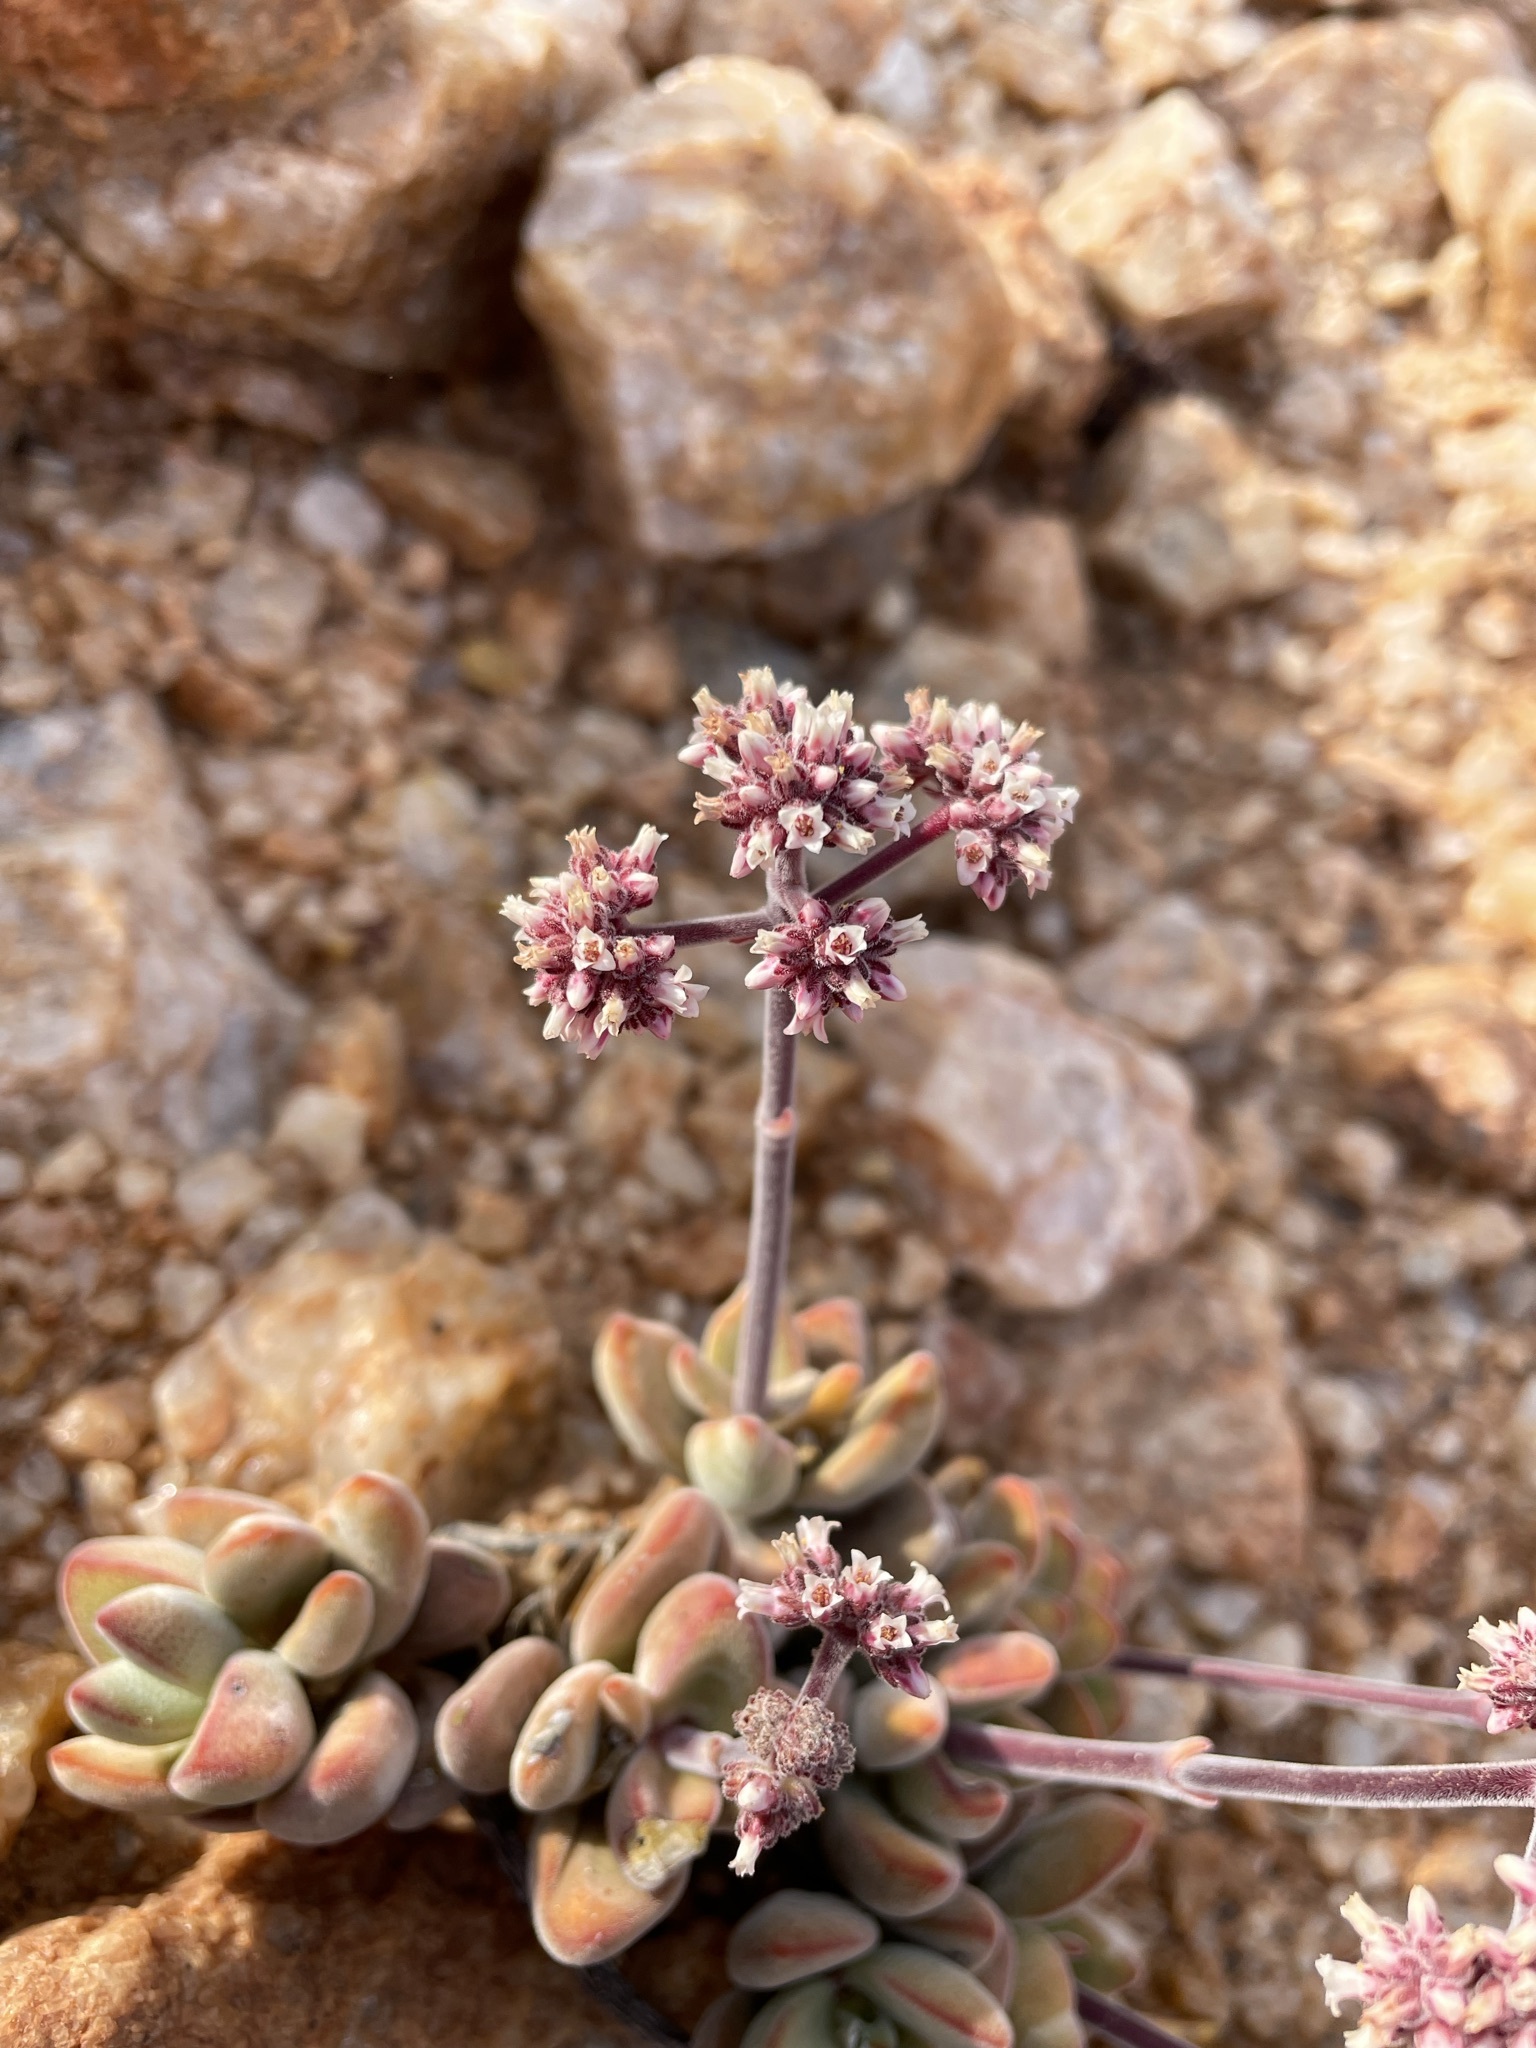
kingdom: Plantae
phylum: Tracheophyta
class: Magnoliopsida
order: Saxifragales
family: Crassulaceae
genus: Crassula
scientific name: Crassula sericea
